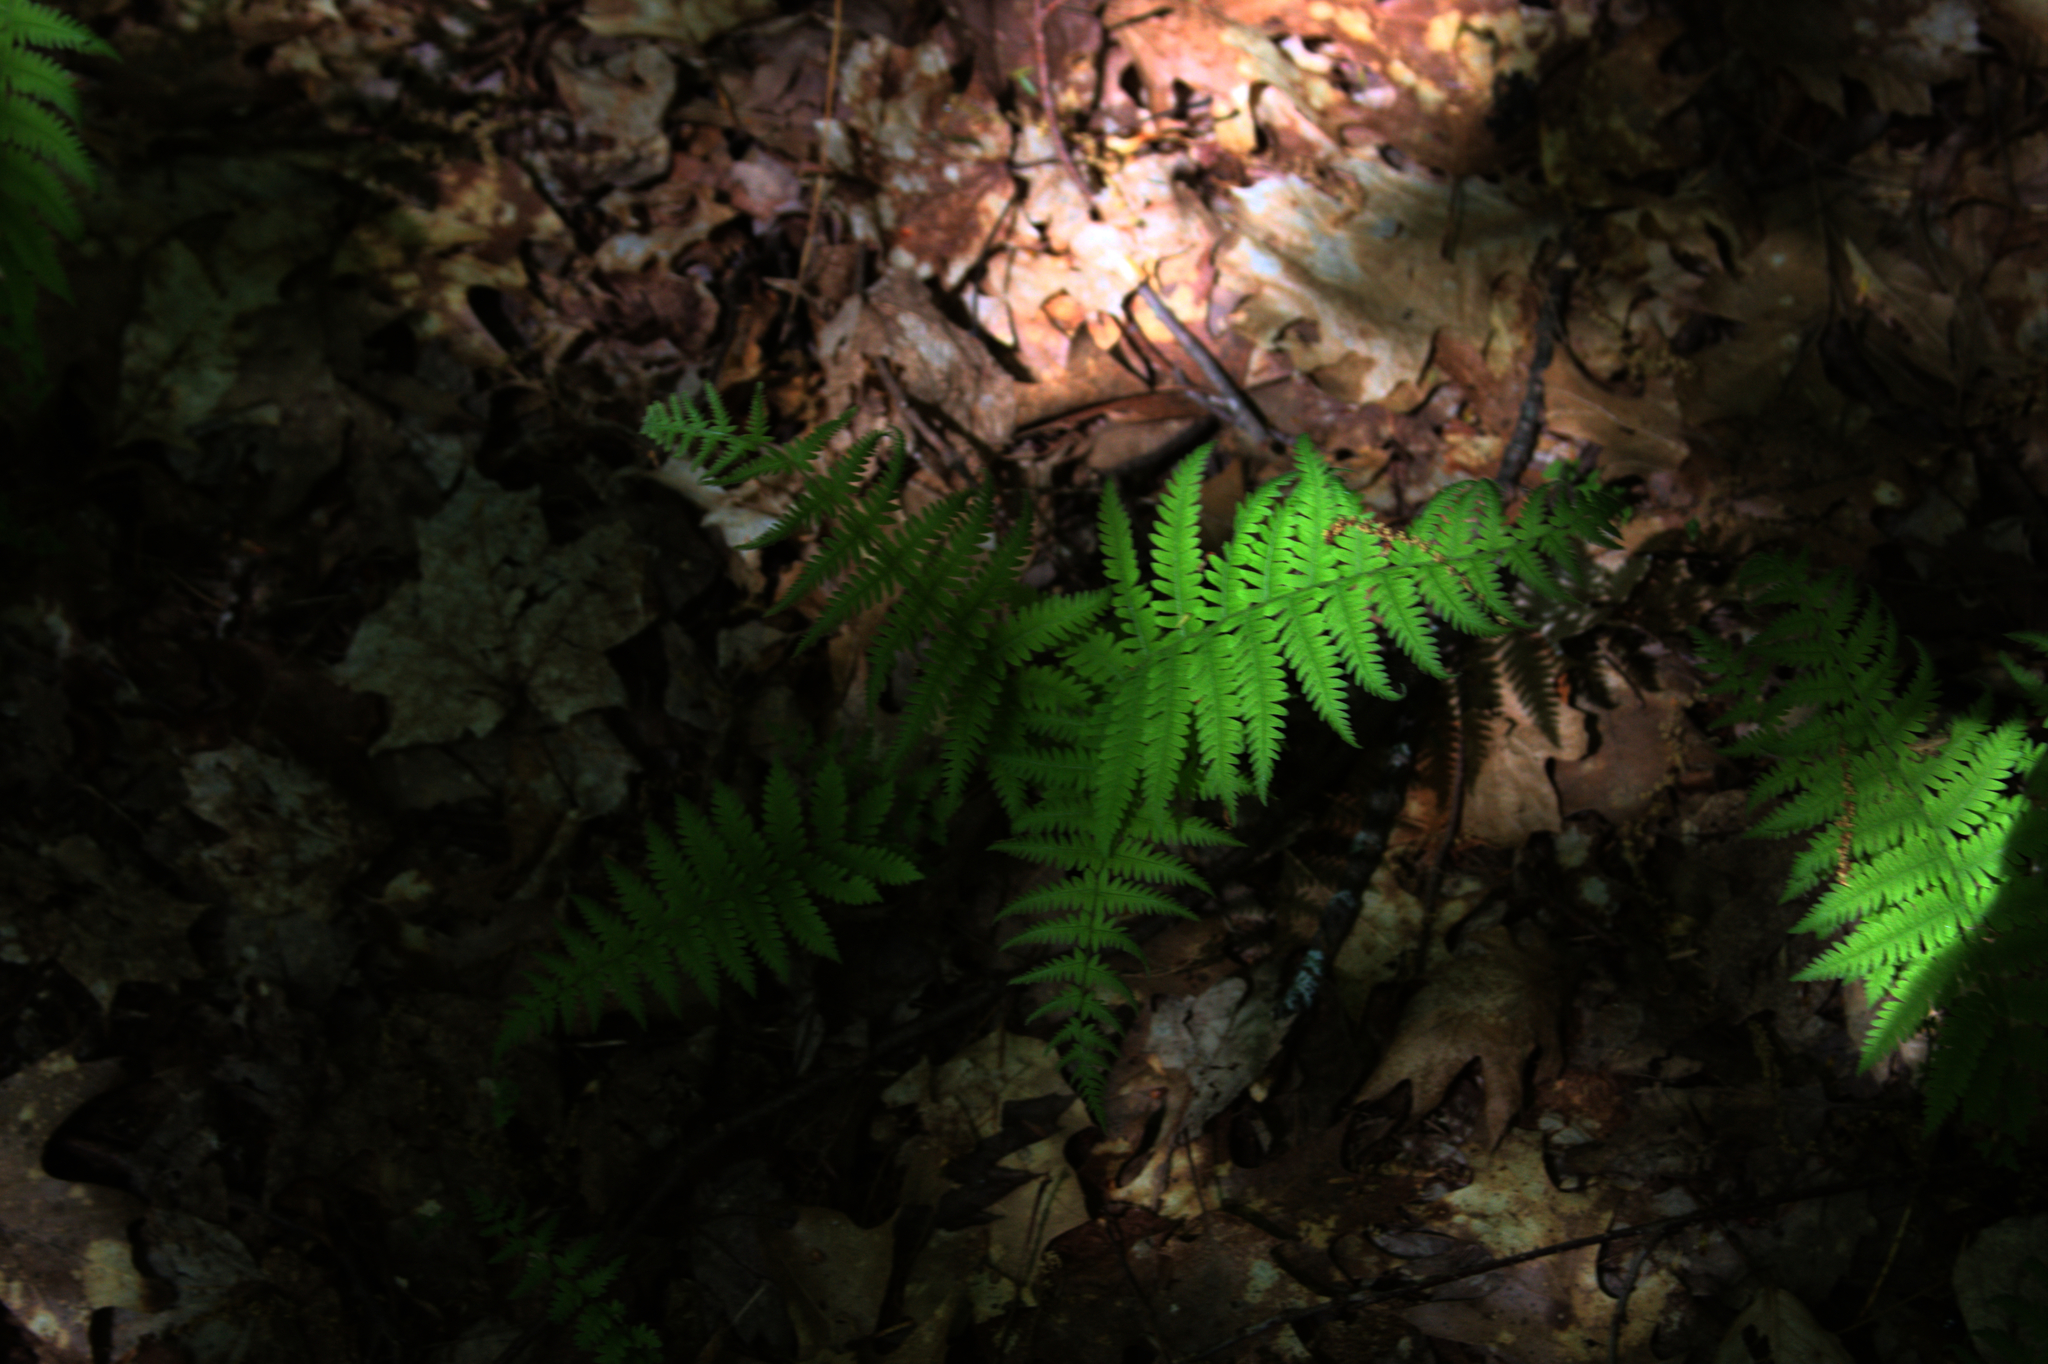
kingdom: Plantae
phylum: Tracheophyta
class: Polypodiopsida
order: Polypodiales
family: Thelypteridaceae
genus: Amauropelta
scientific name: Amauropelta noveboracensis
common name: New york fern
